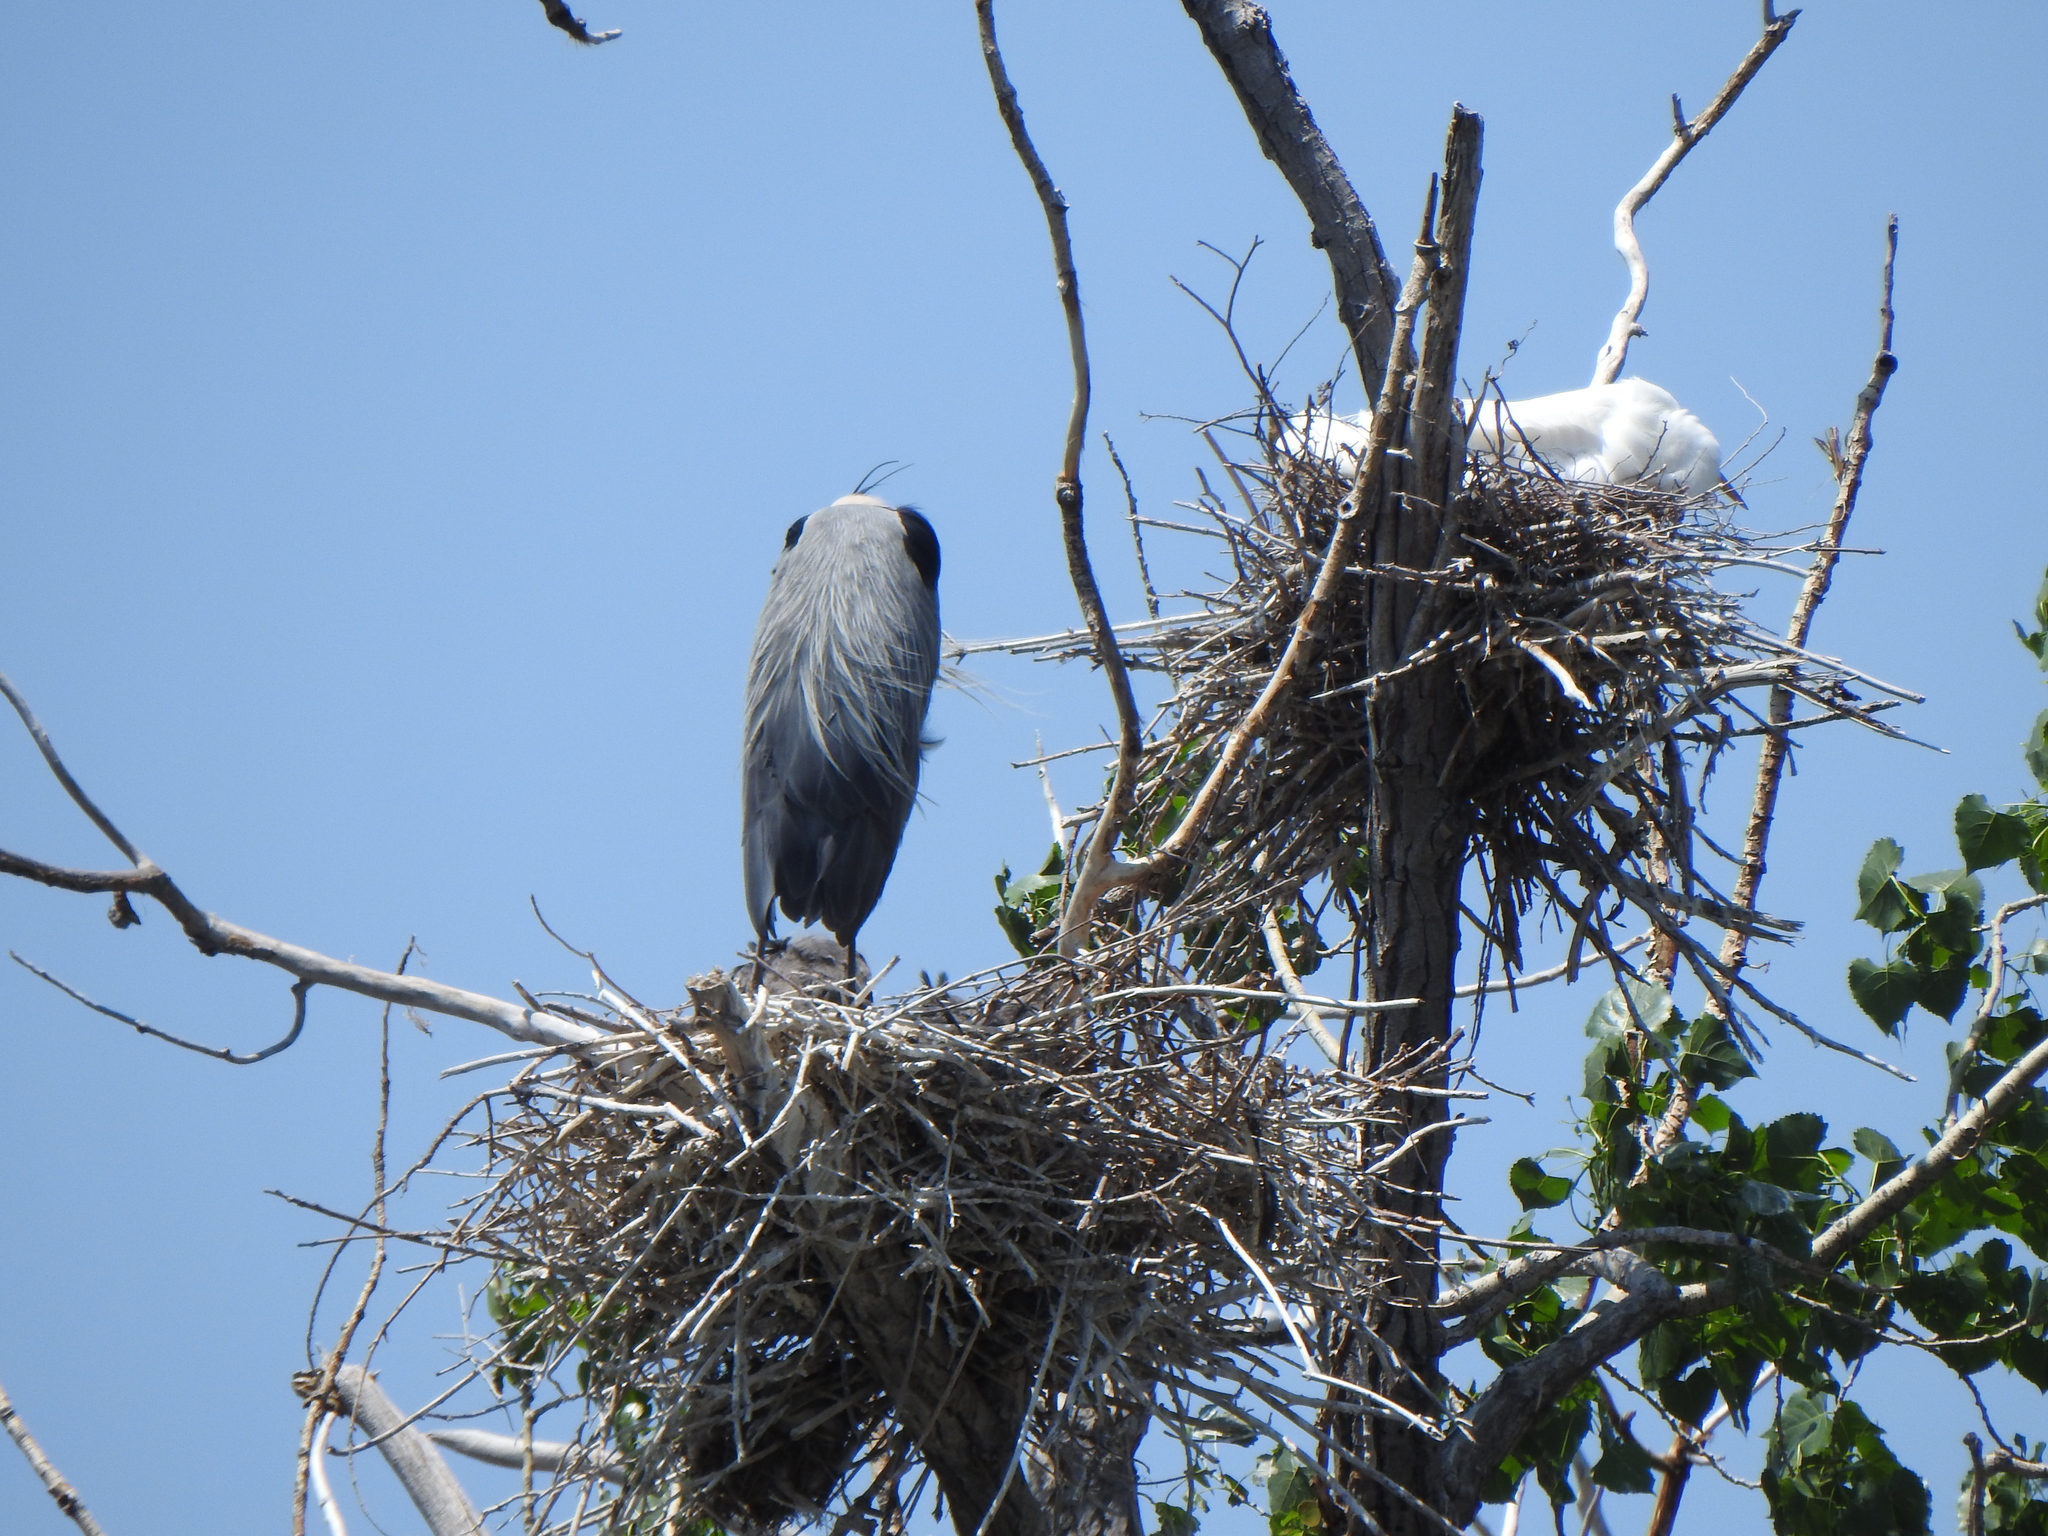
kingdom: Animalia
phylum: Chordata
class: Aves
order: Pelecaniformes
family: Ardeidae
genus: Ardea
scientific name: Ardea herodias
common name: Great blue heron
